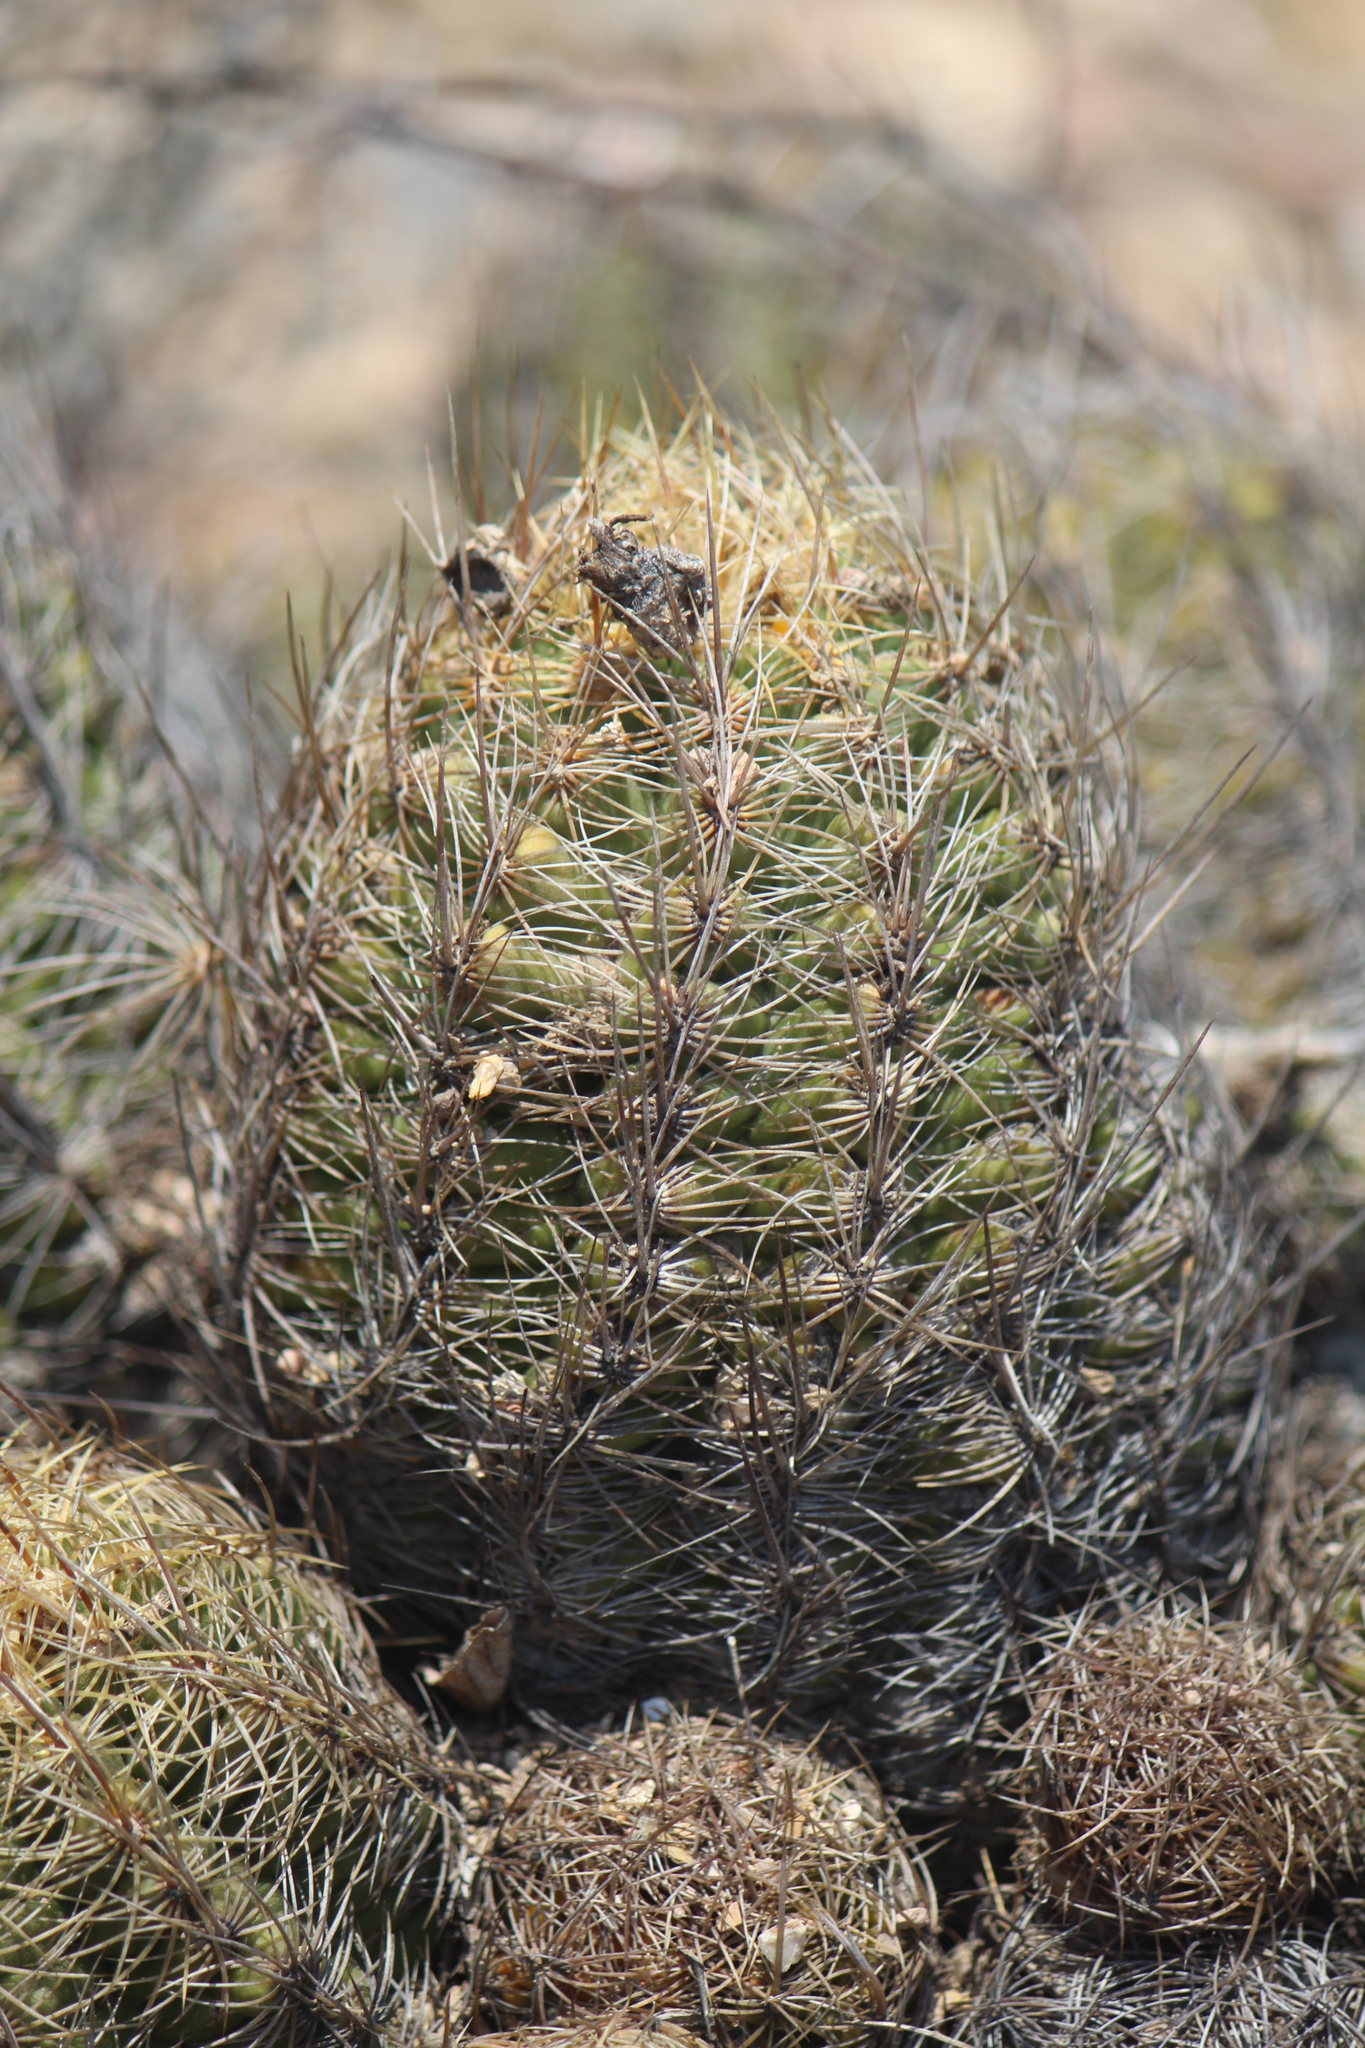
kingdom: Plantae
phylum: Tracheophyta
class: Magnoliopsida
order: Caryophyllales
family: Cactaceae
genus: Thelocactus
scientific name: Thelocactus leucacanthus
